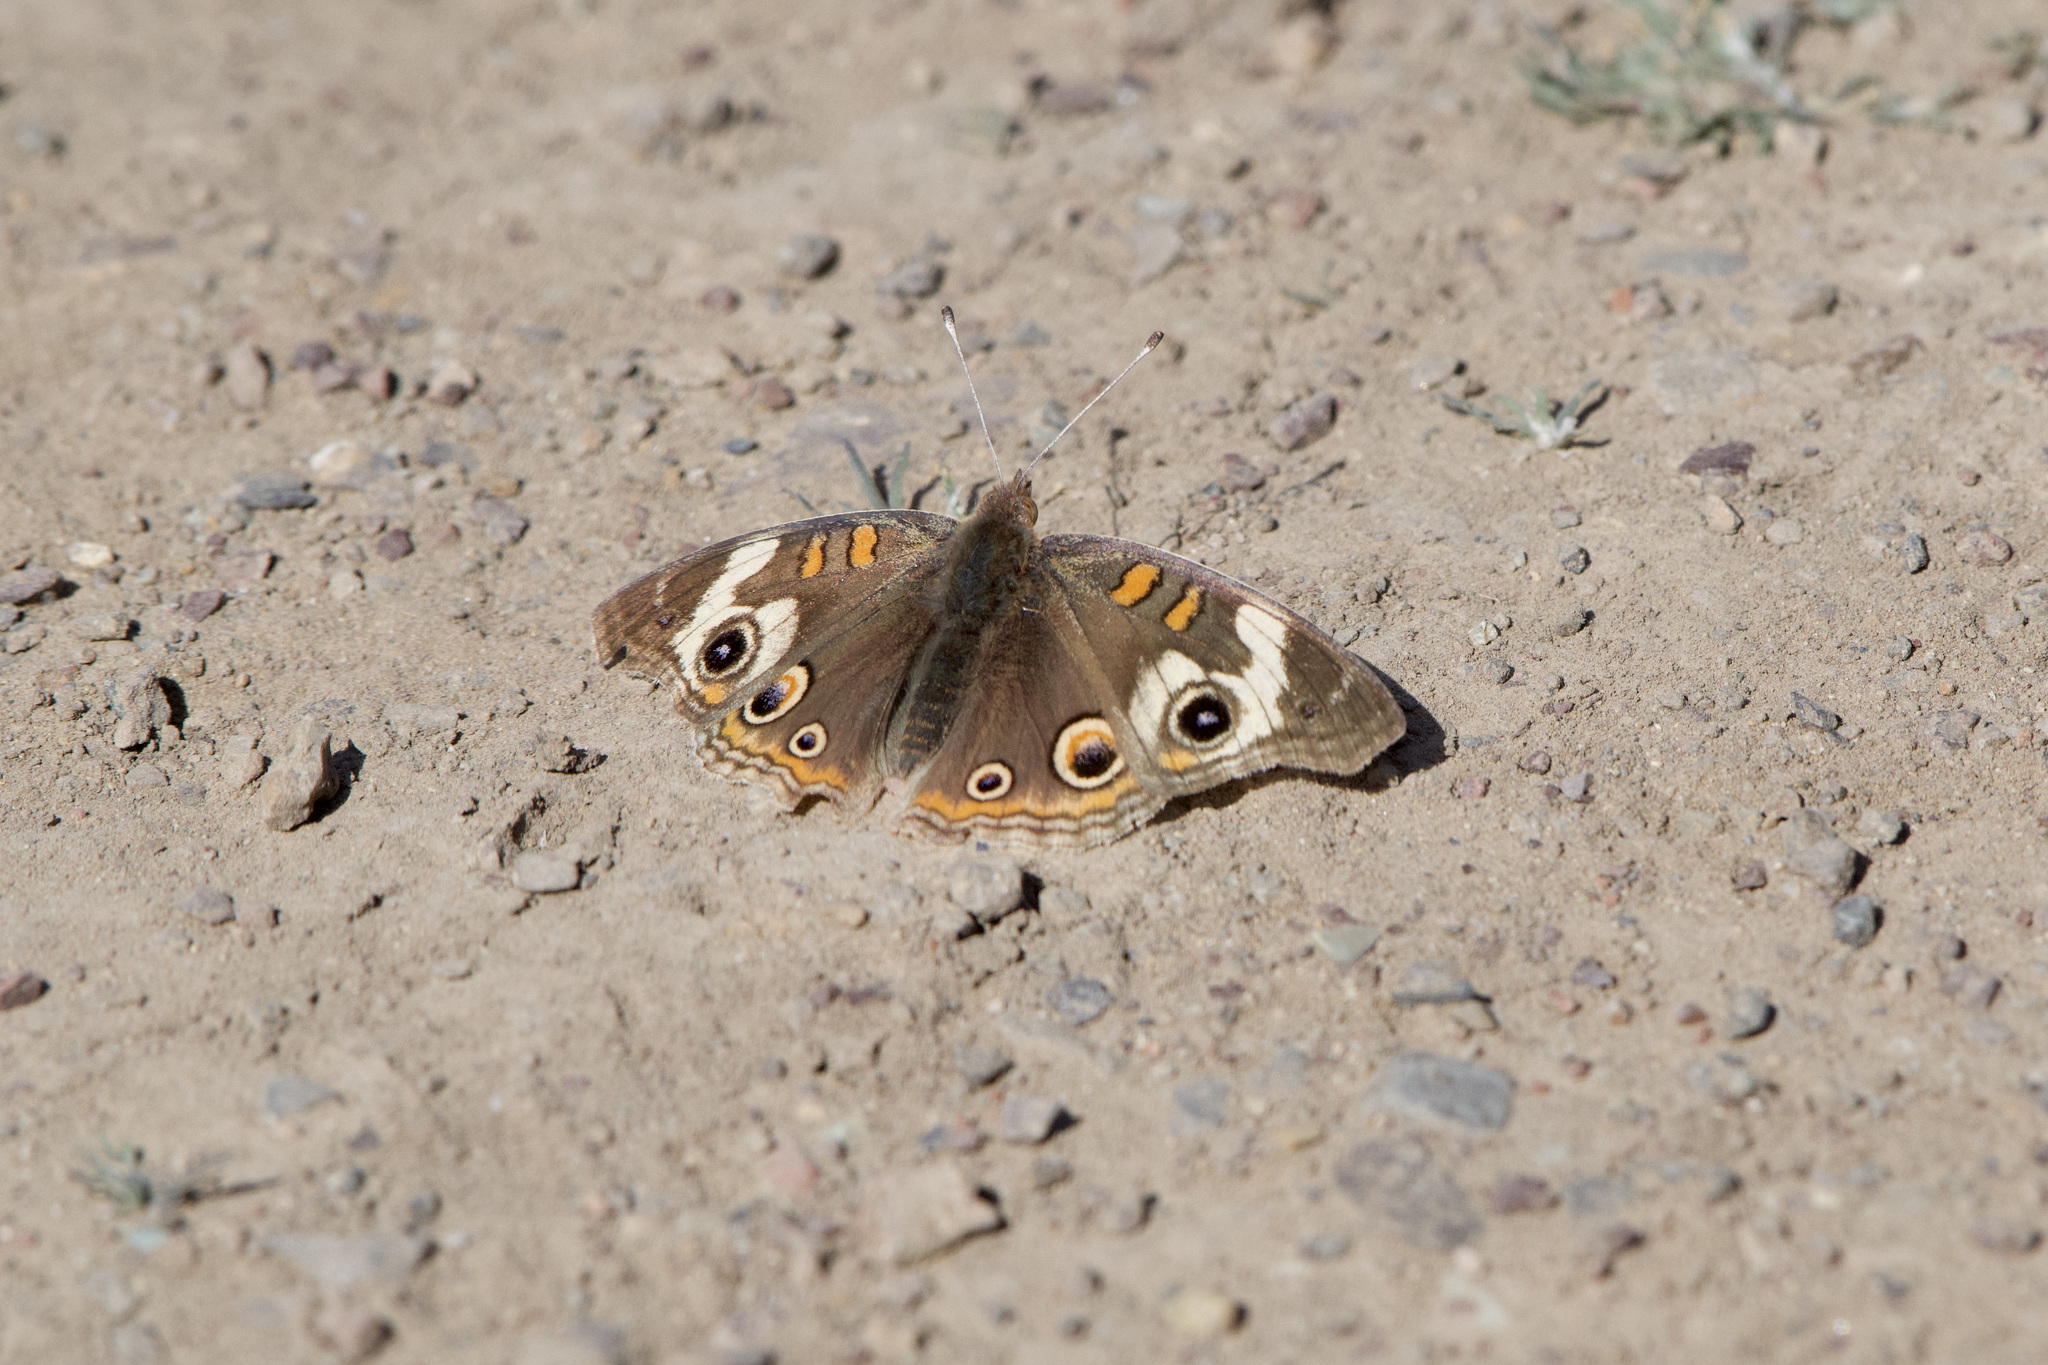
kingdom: Animalia
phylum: Arthropoda
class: Insecta
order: Lepidoptera
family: Nymphalidae
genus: Junonia
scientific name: Junonia grisea
